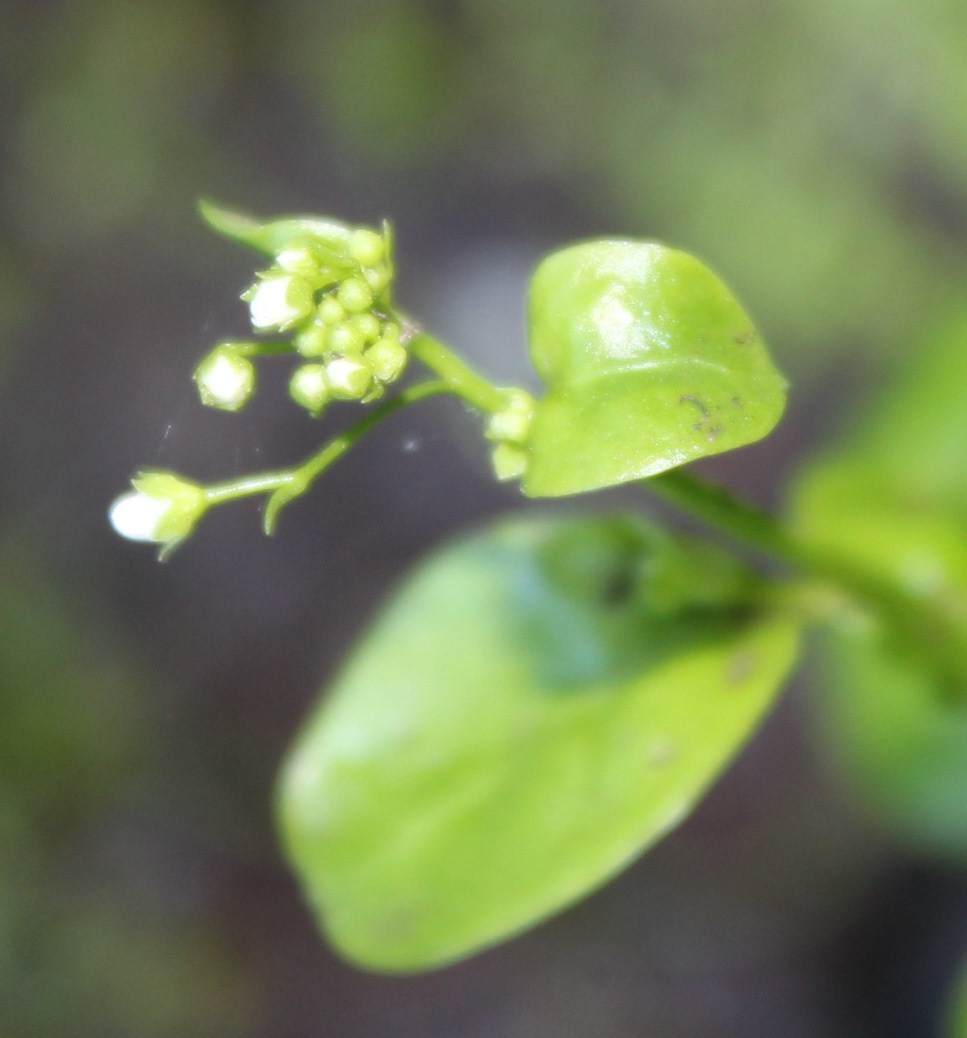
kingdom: Plantae
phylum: Tracheophyta
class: Magnoliopsida
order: Ericales
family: Primulaceae
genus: Samolus
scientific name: Samolus valerandi
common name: Brookweed
